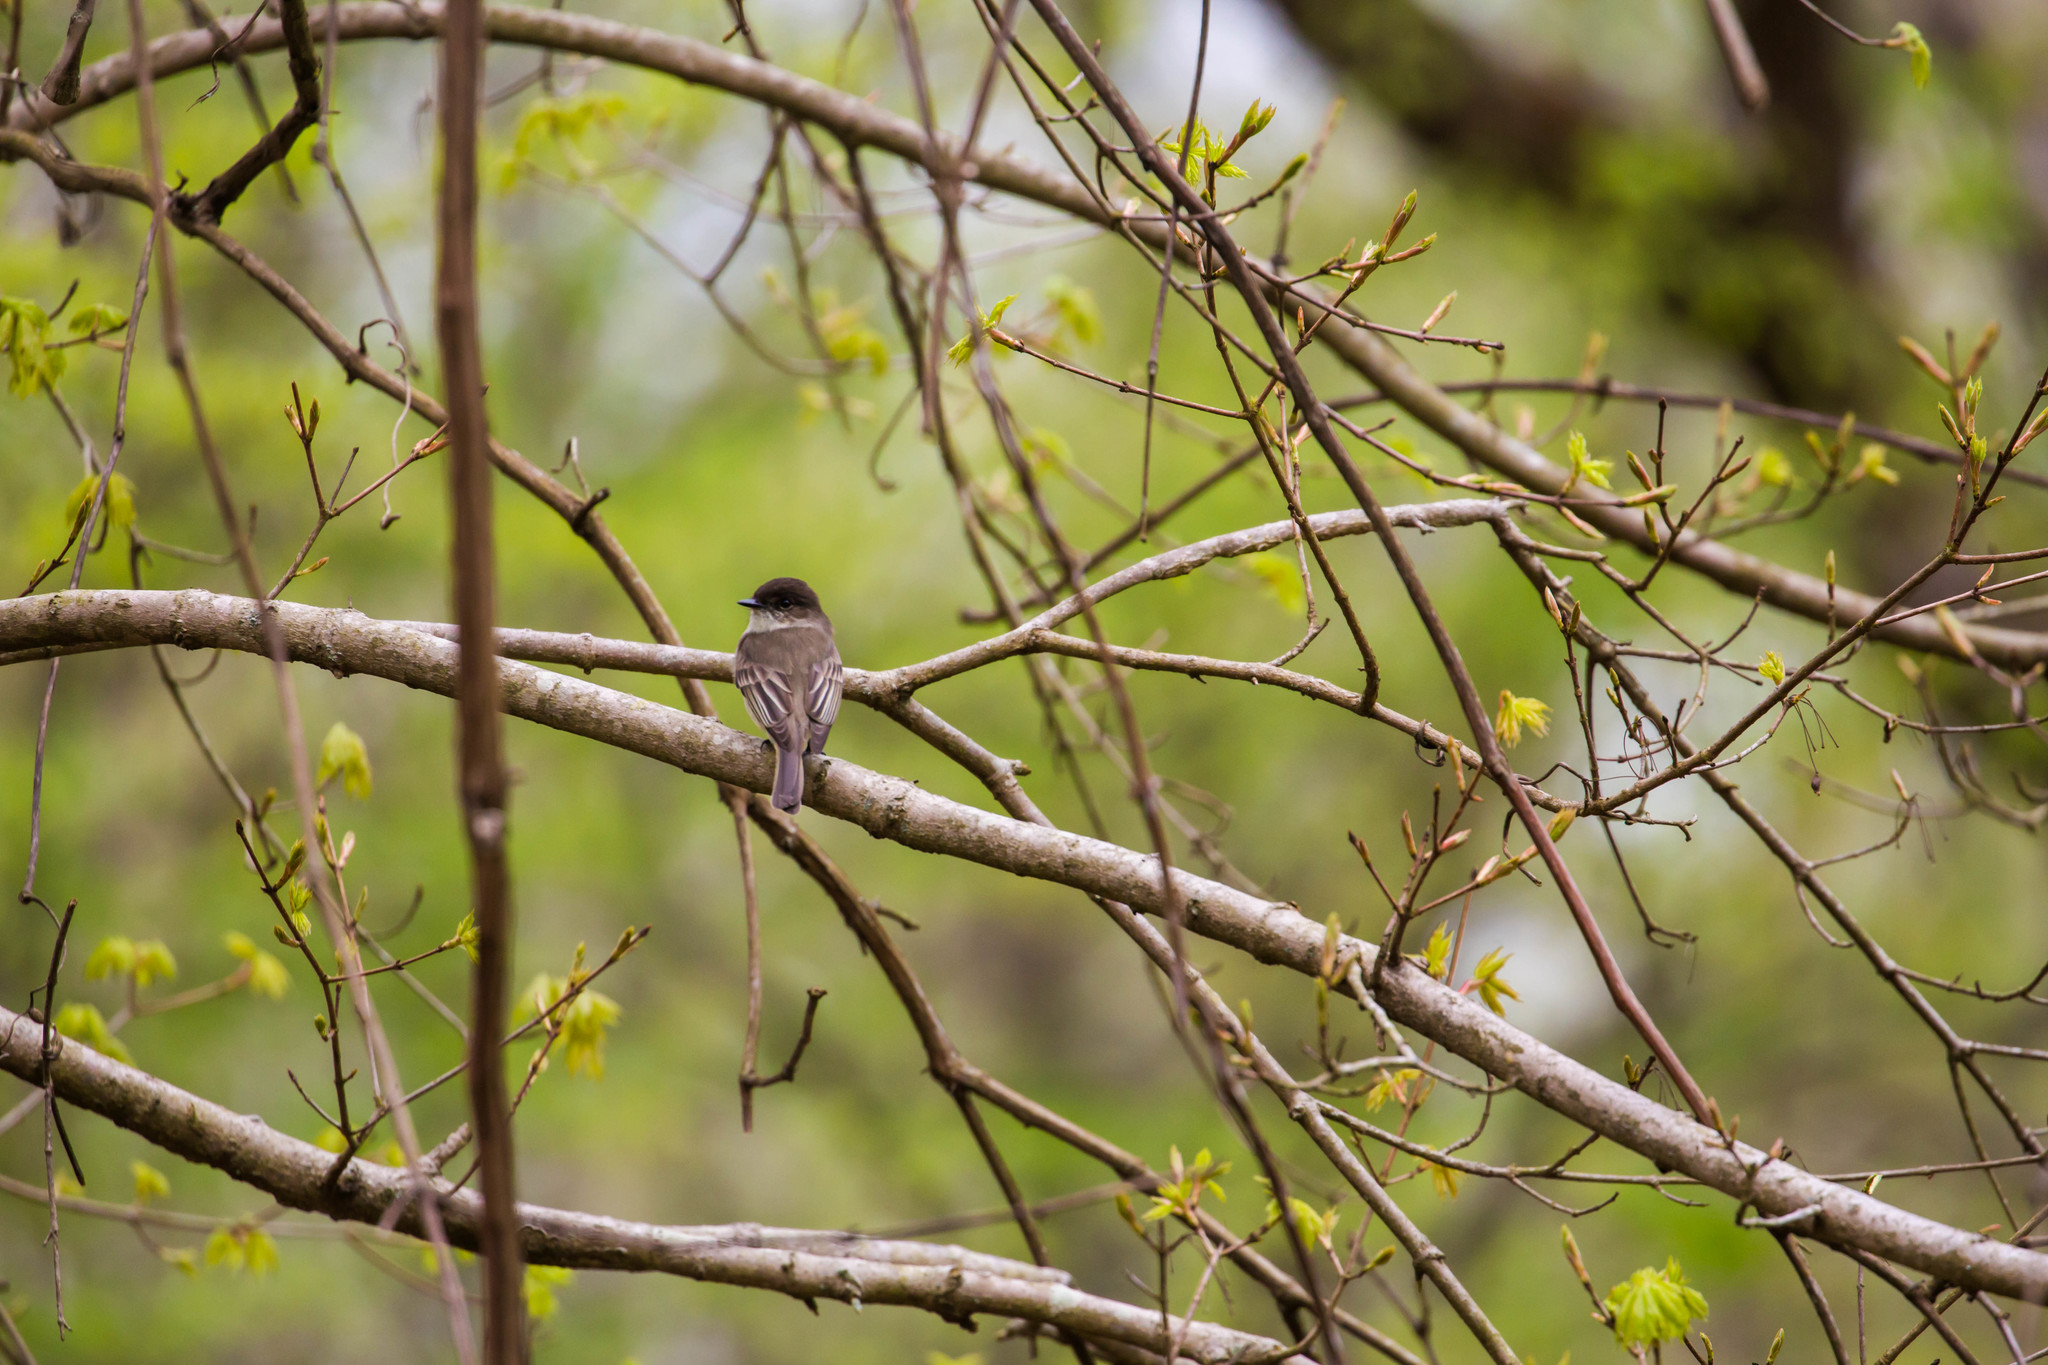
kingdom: Animalia
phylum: Chordata
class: Aves
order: Passeriformes
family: Tyrannidae
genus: Sayornis
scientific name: Sayornis phoebe
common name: Eastern phoebe
